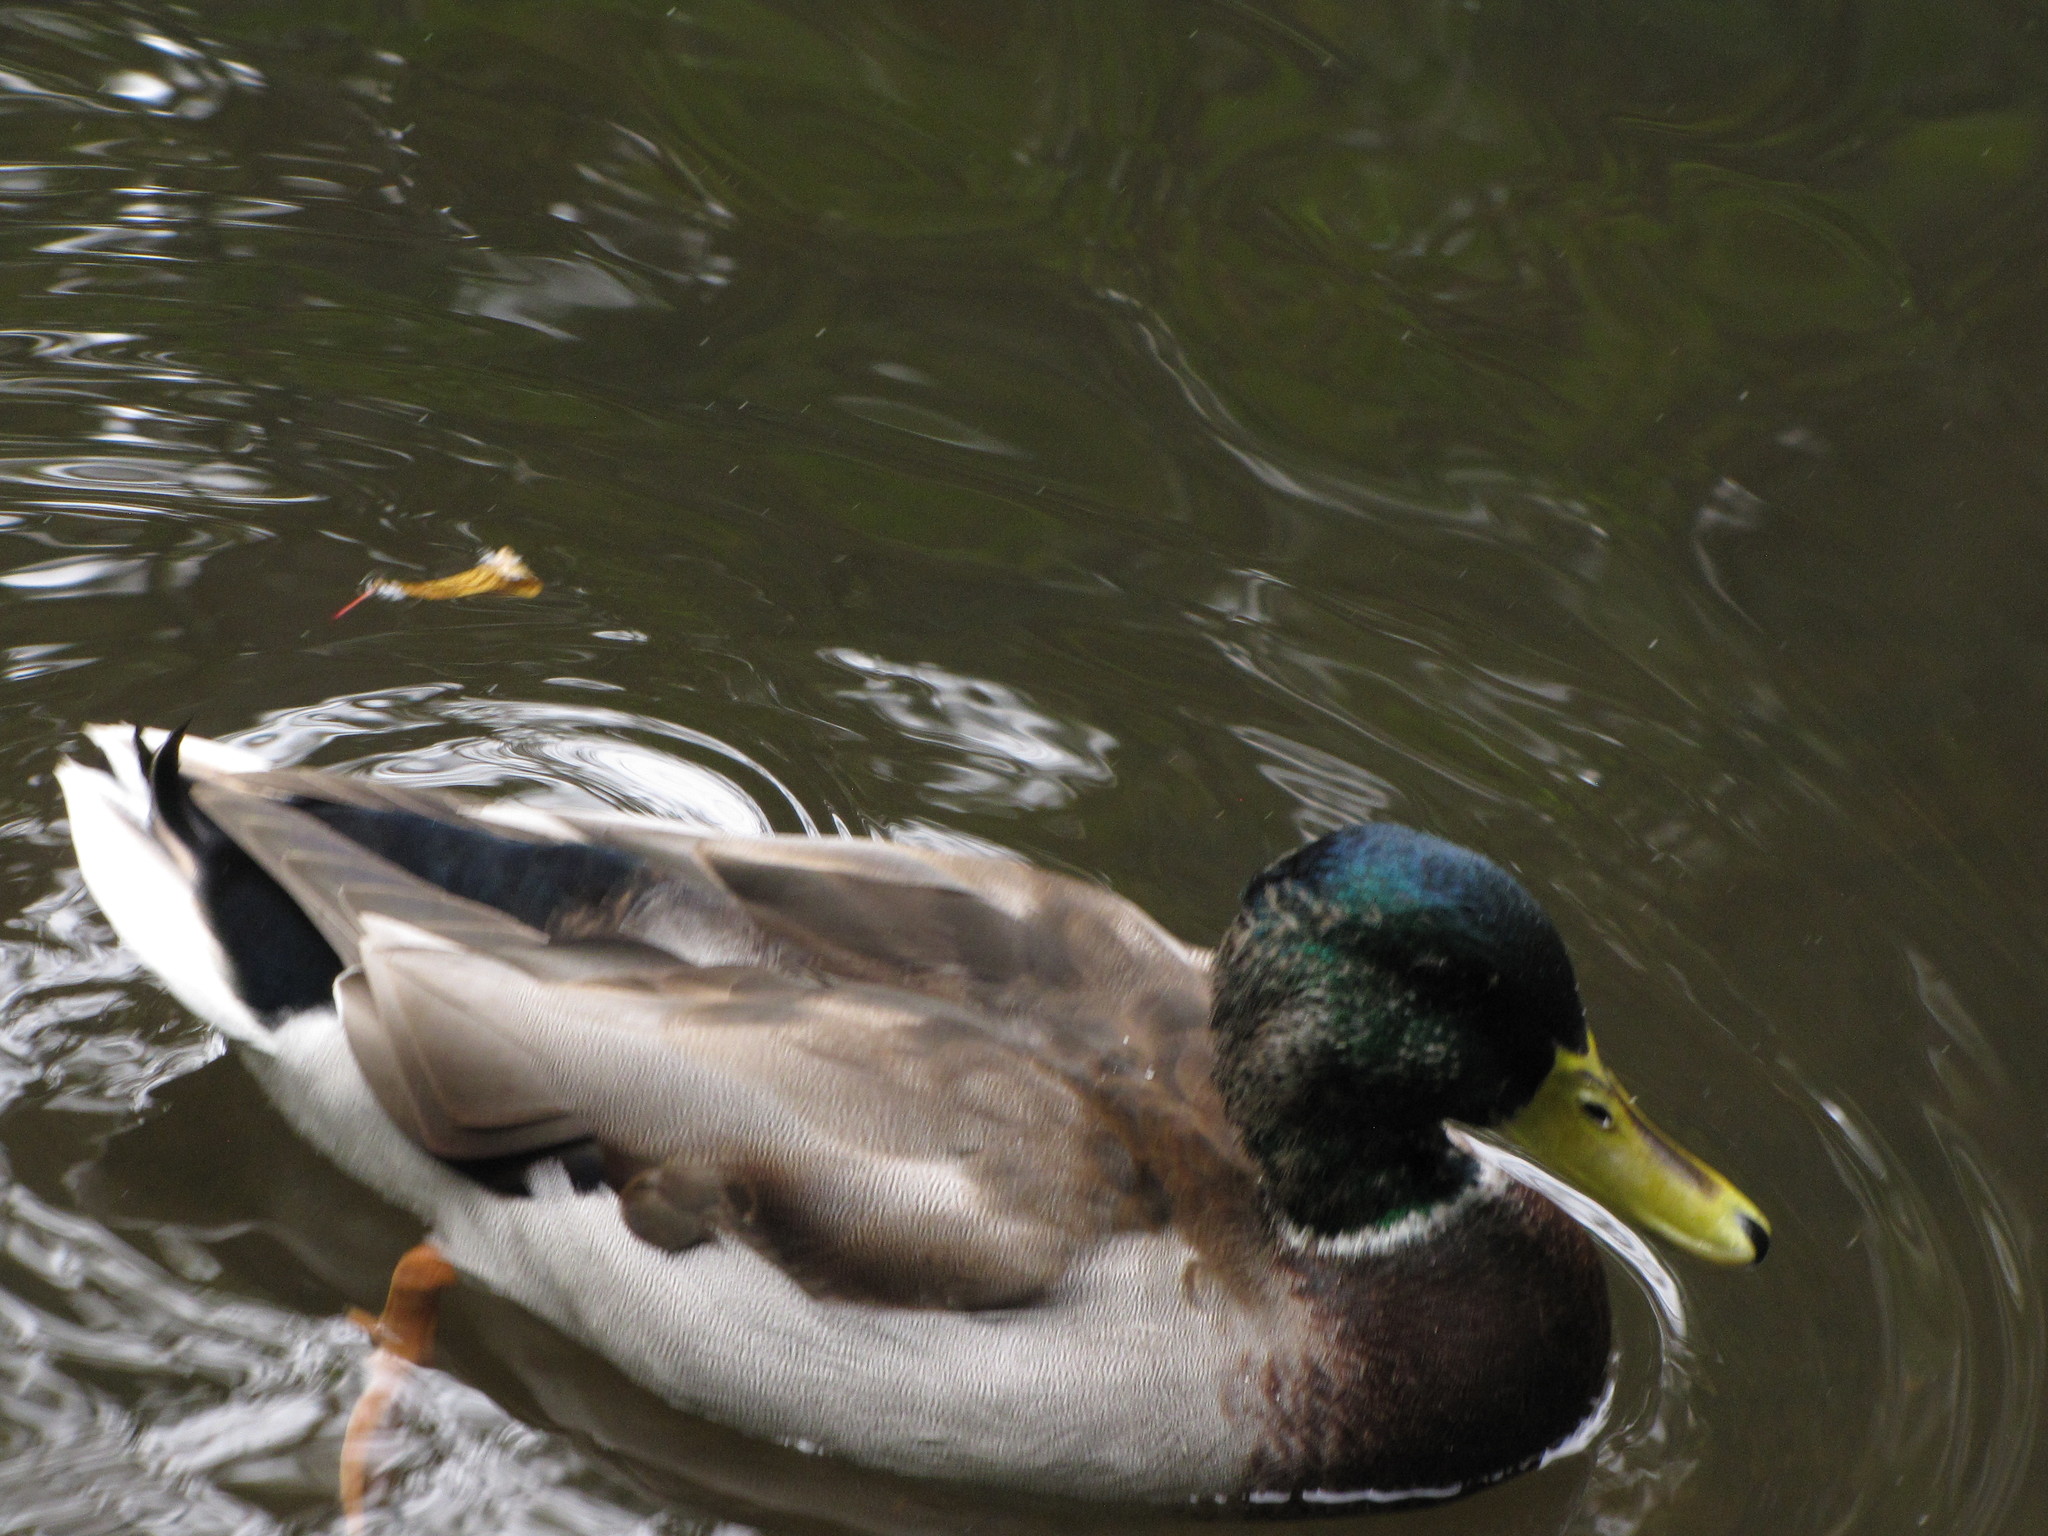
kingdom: Animalia
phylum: Chordata
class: Aves
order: Anseriformes
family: Anatidae
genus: Anas
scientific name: Anas platyrhynchos
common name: Mallard
